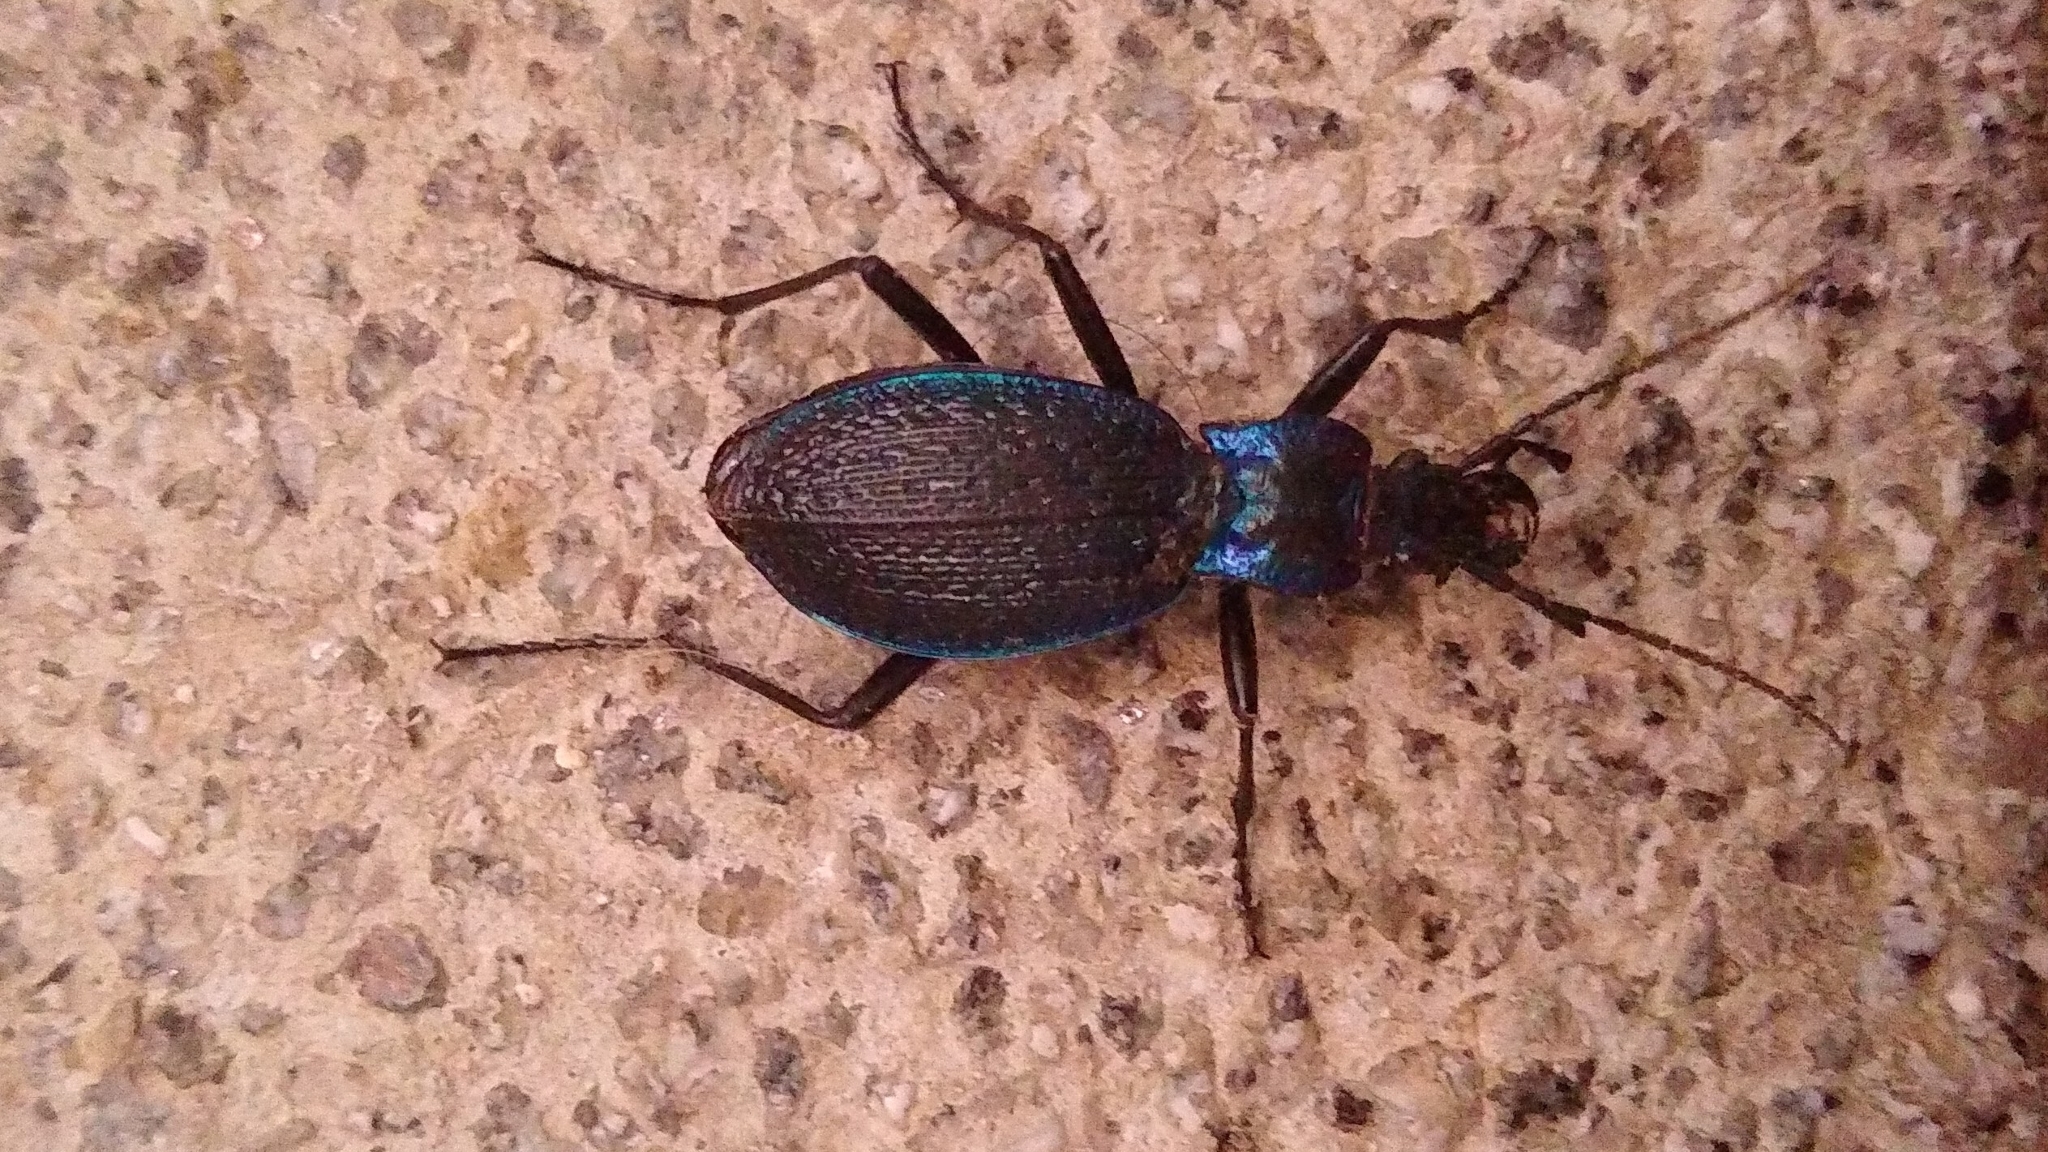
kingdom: Animalia
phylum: Arthropoda
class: Insecta
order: Coleoptera
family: Carabidae
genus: Carabus
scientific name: Carabus intricatus
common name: Blue ground beetle
